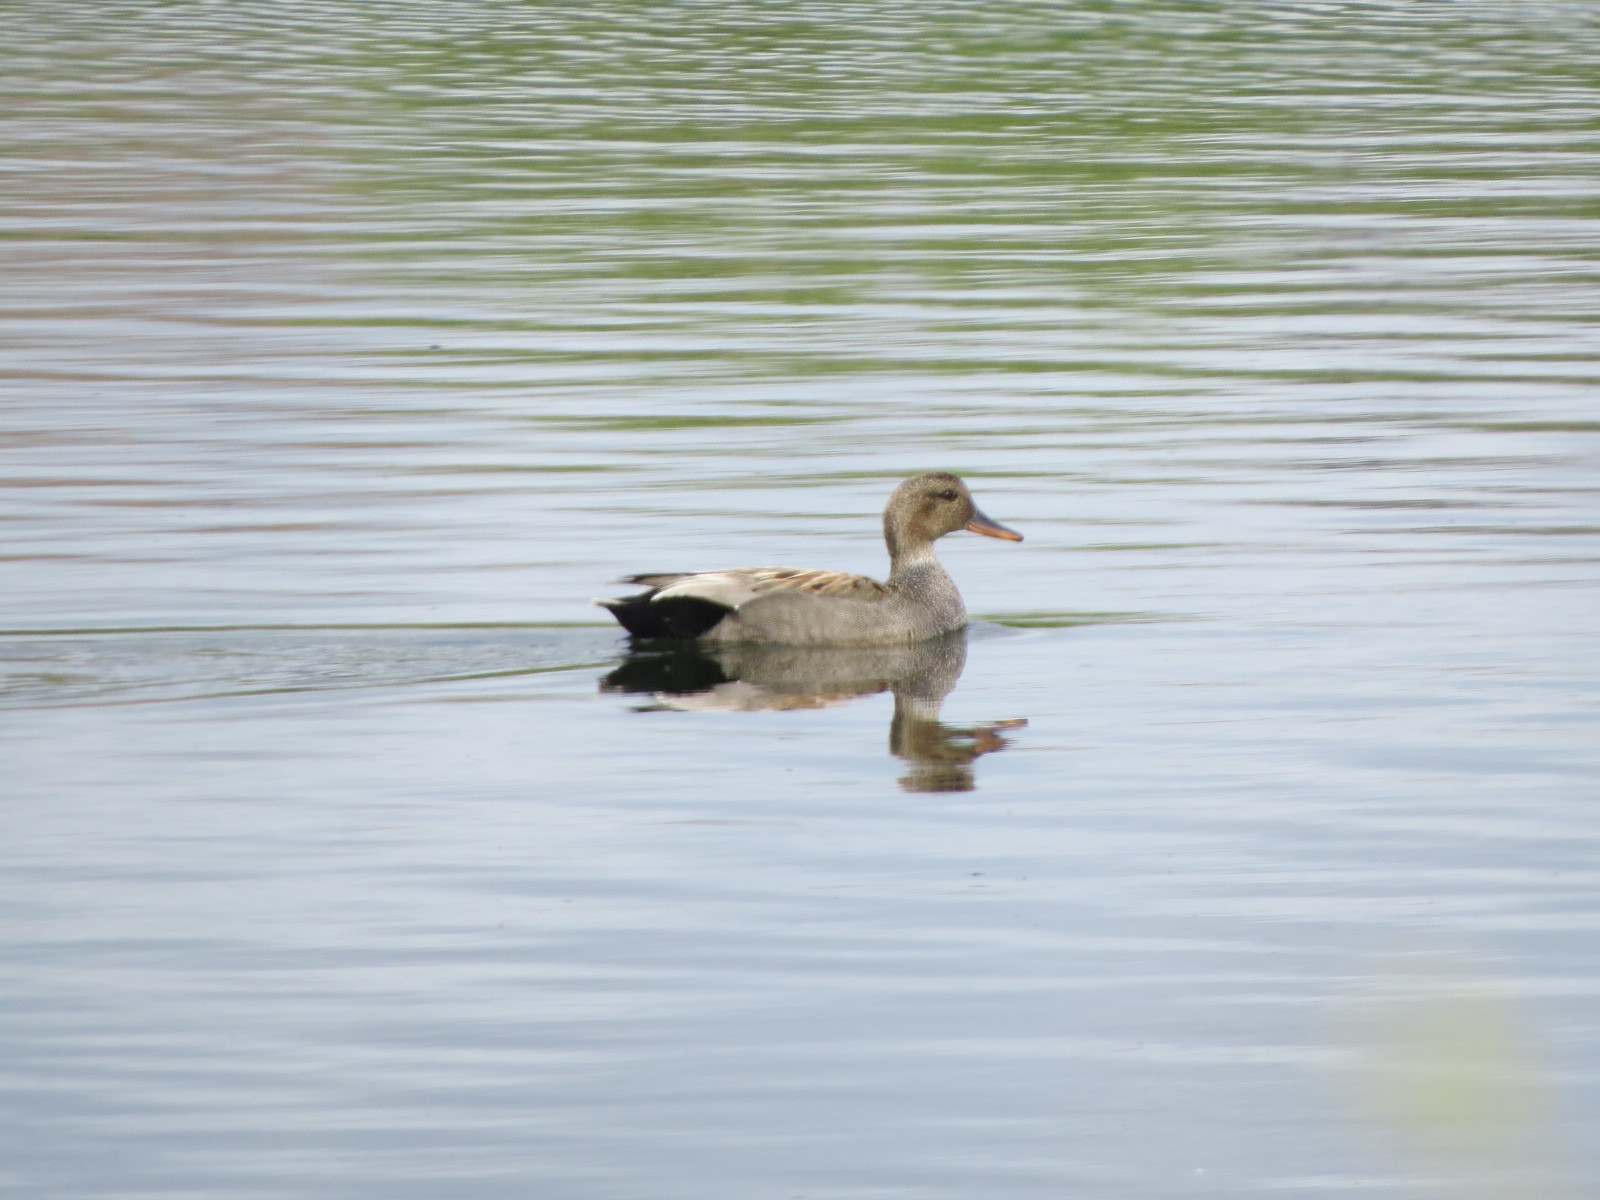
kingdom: Animalia
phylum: Chordata
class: Aves
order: Anseriformes
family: Anatidae
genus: Mareca
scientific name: Mareca strepera
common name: Gadwall
